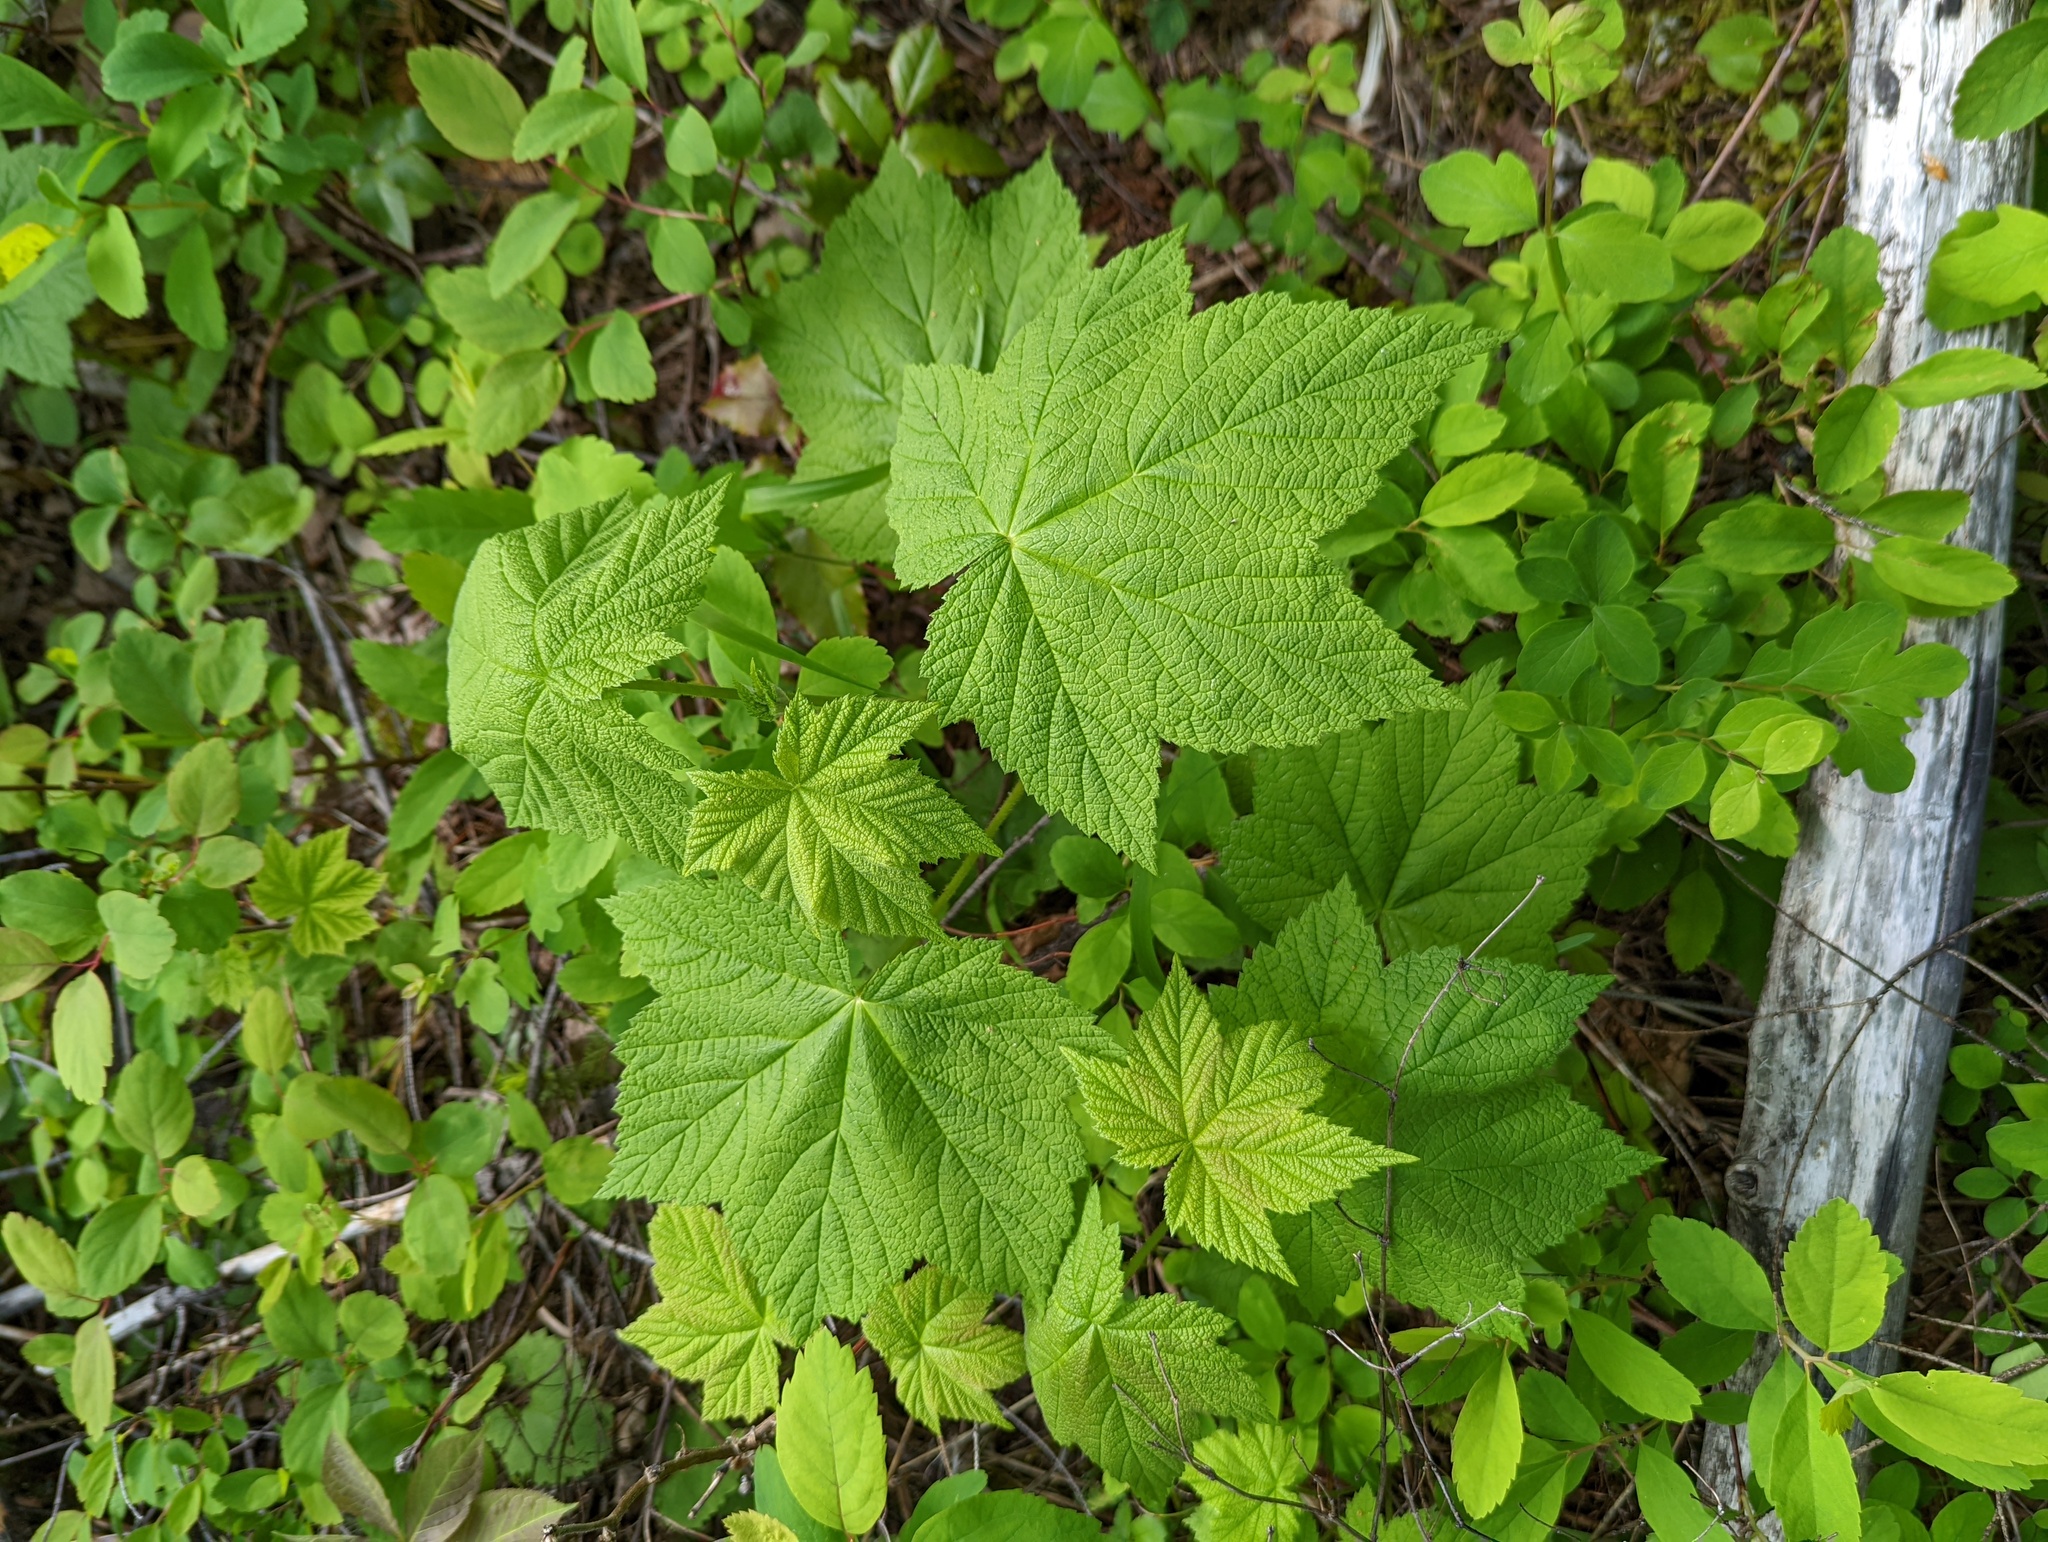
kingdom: Plantae
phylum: Tracheophyta
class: Magnoliopsida
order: Rosales
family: Rosaceae
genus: Rubus
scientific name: Rubus parviflorus
